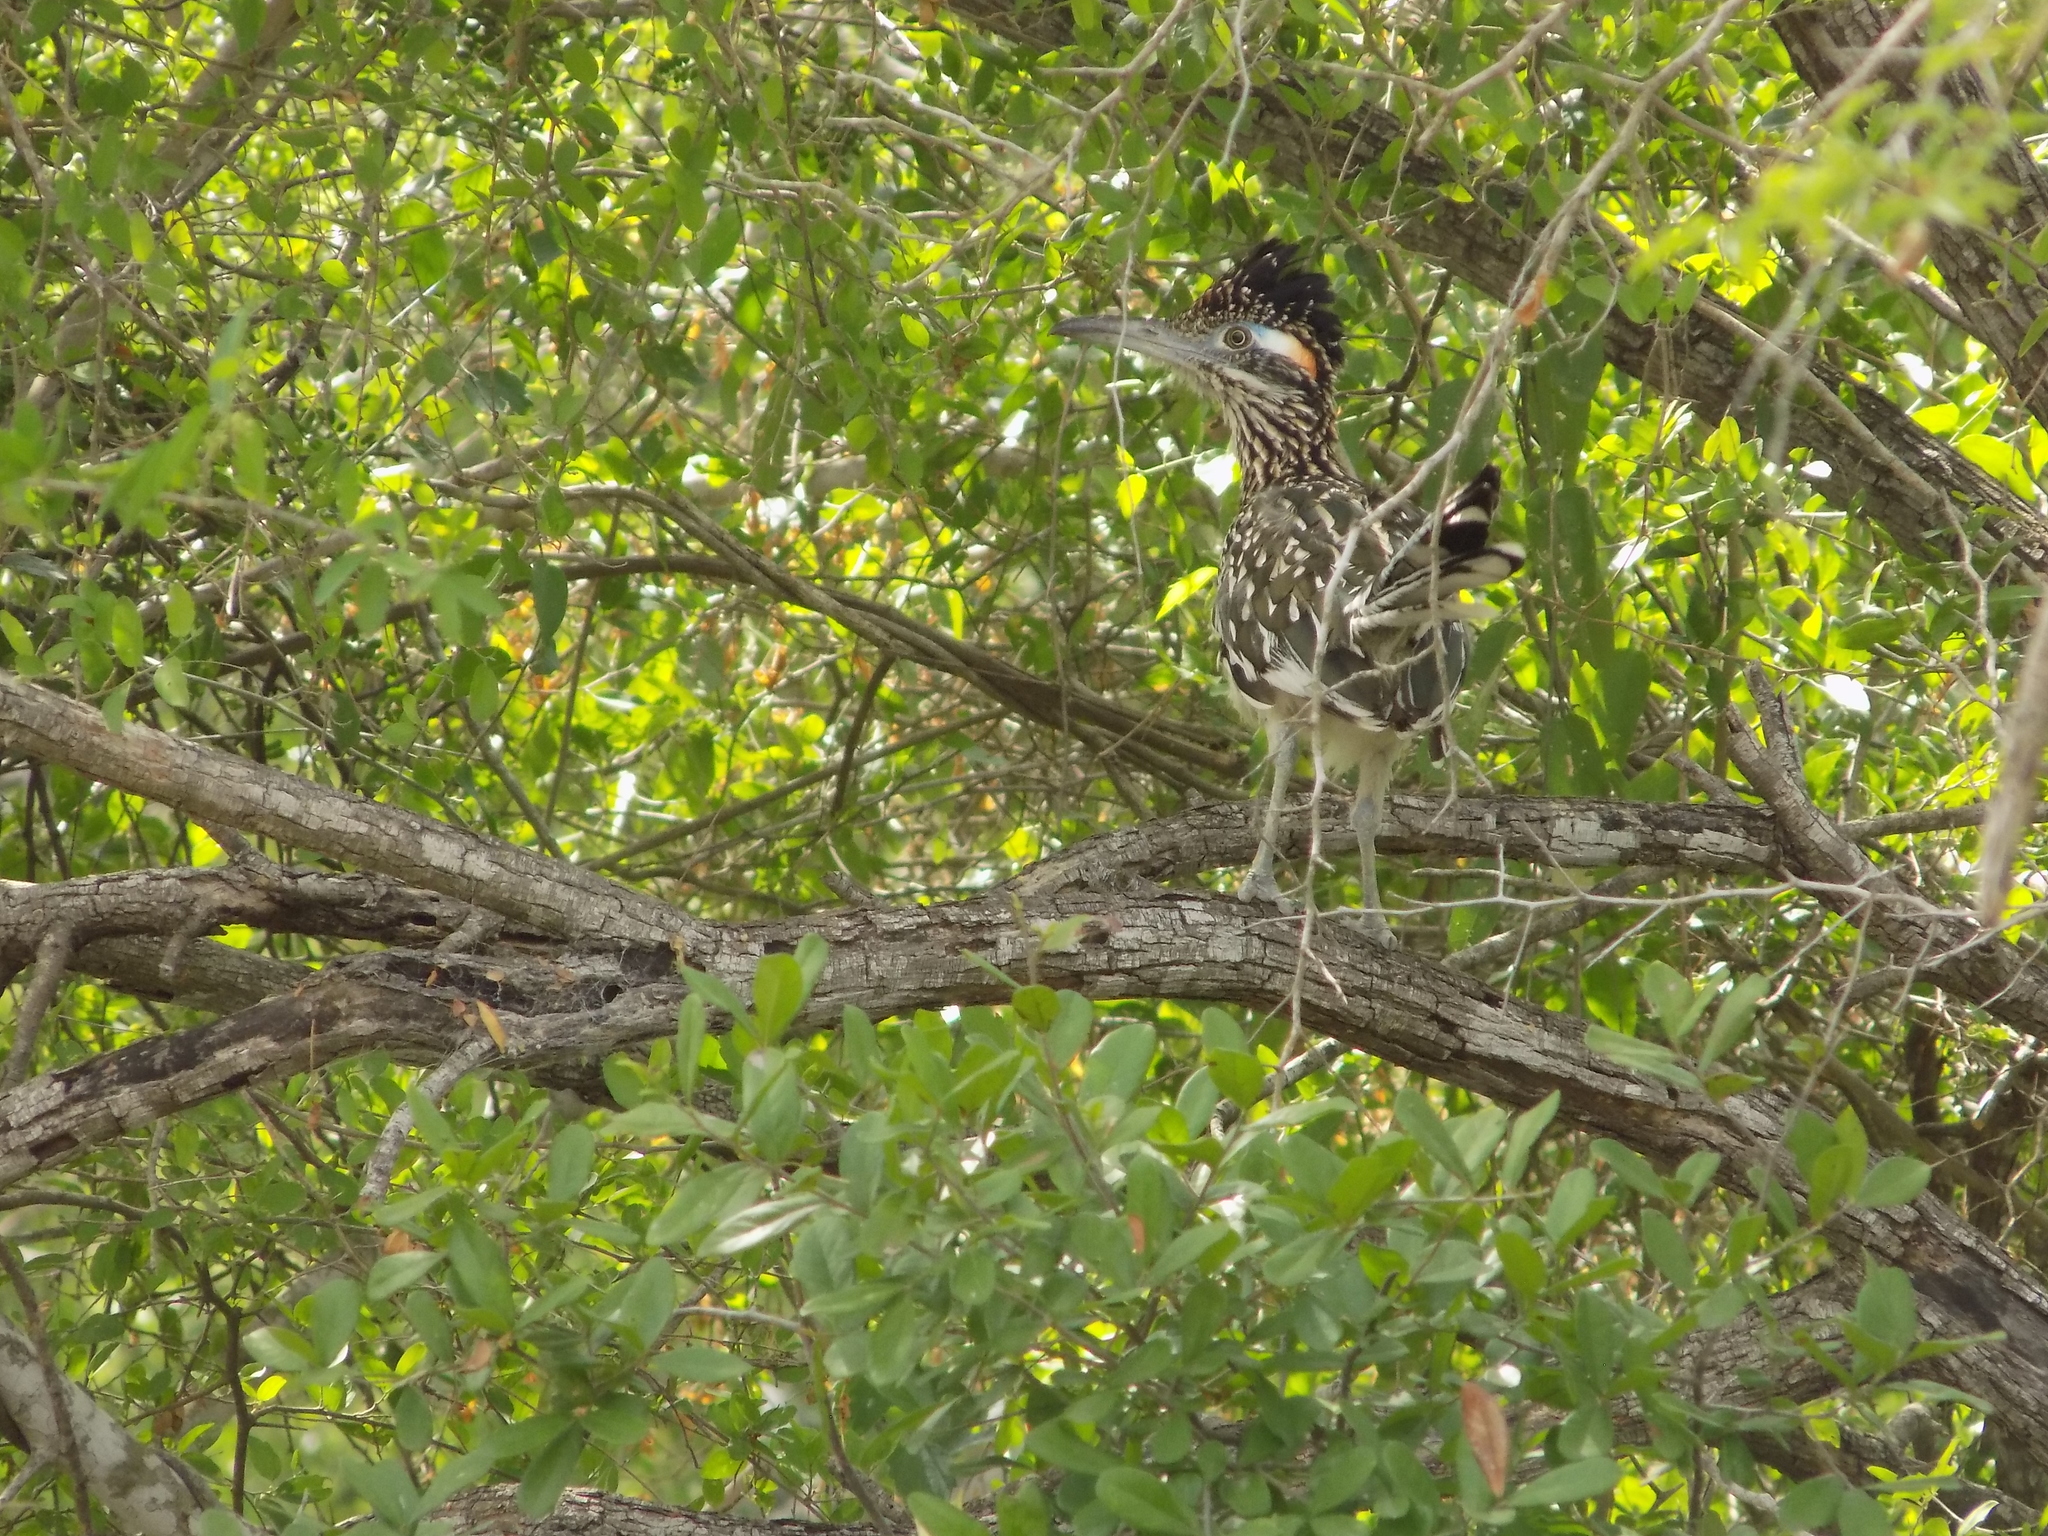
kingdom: Animalia
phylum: Chordata
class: Aves
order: Cuculiformes
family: Cuculidae
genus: Geococcyx
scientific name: Geococcyx californianus
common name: Greater roadrunner
